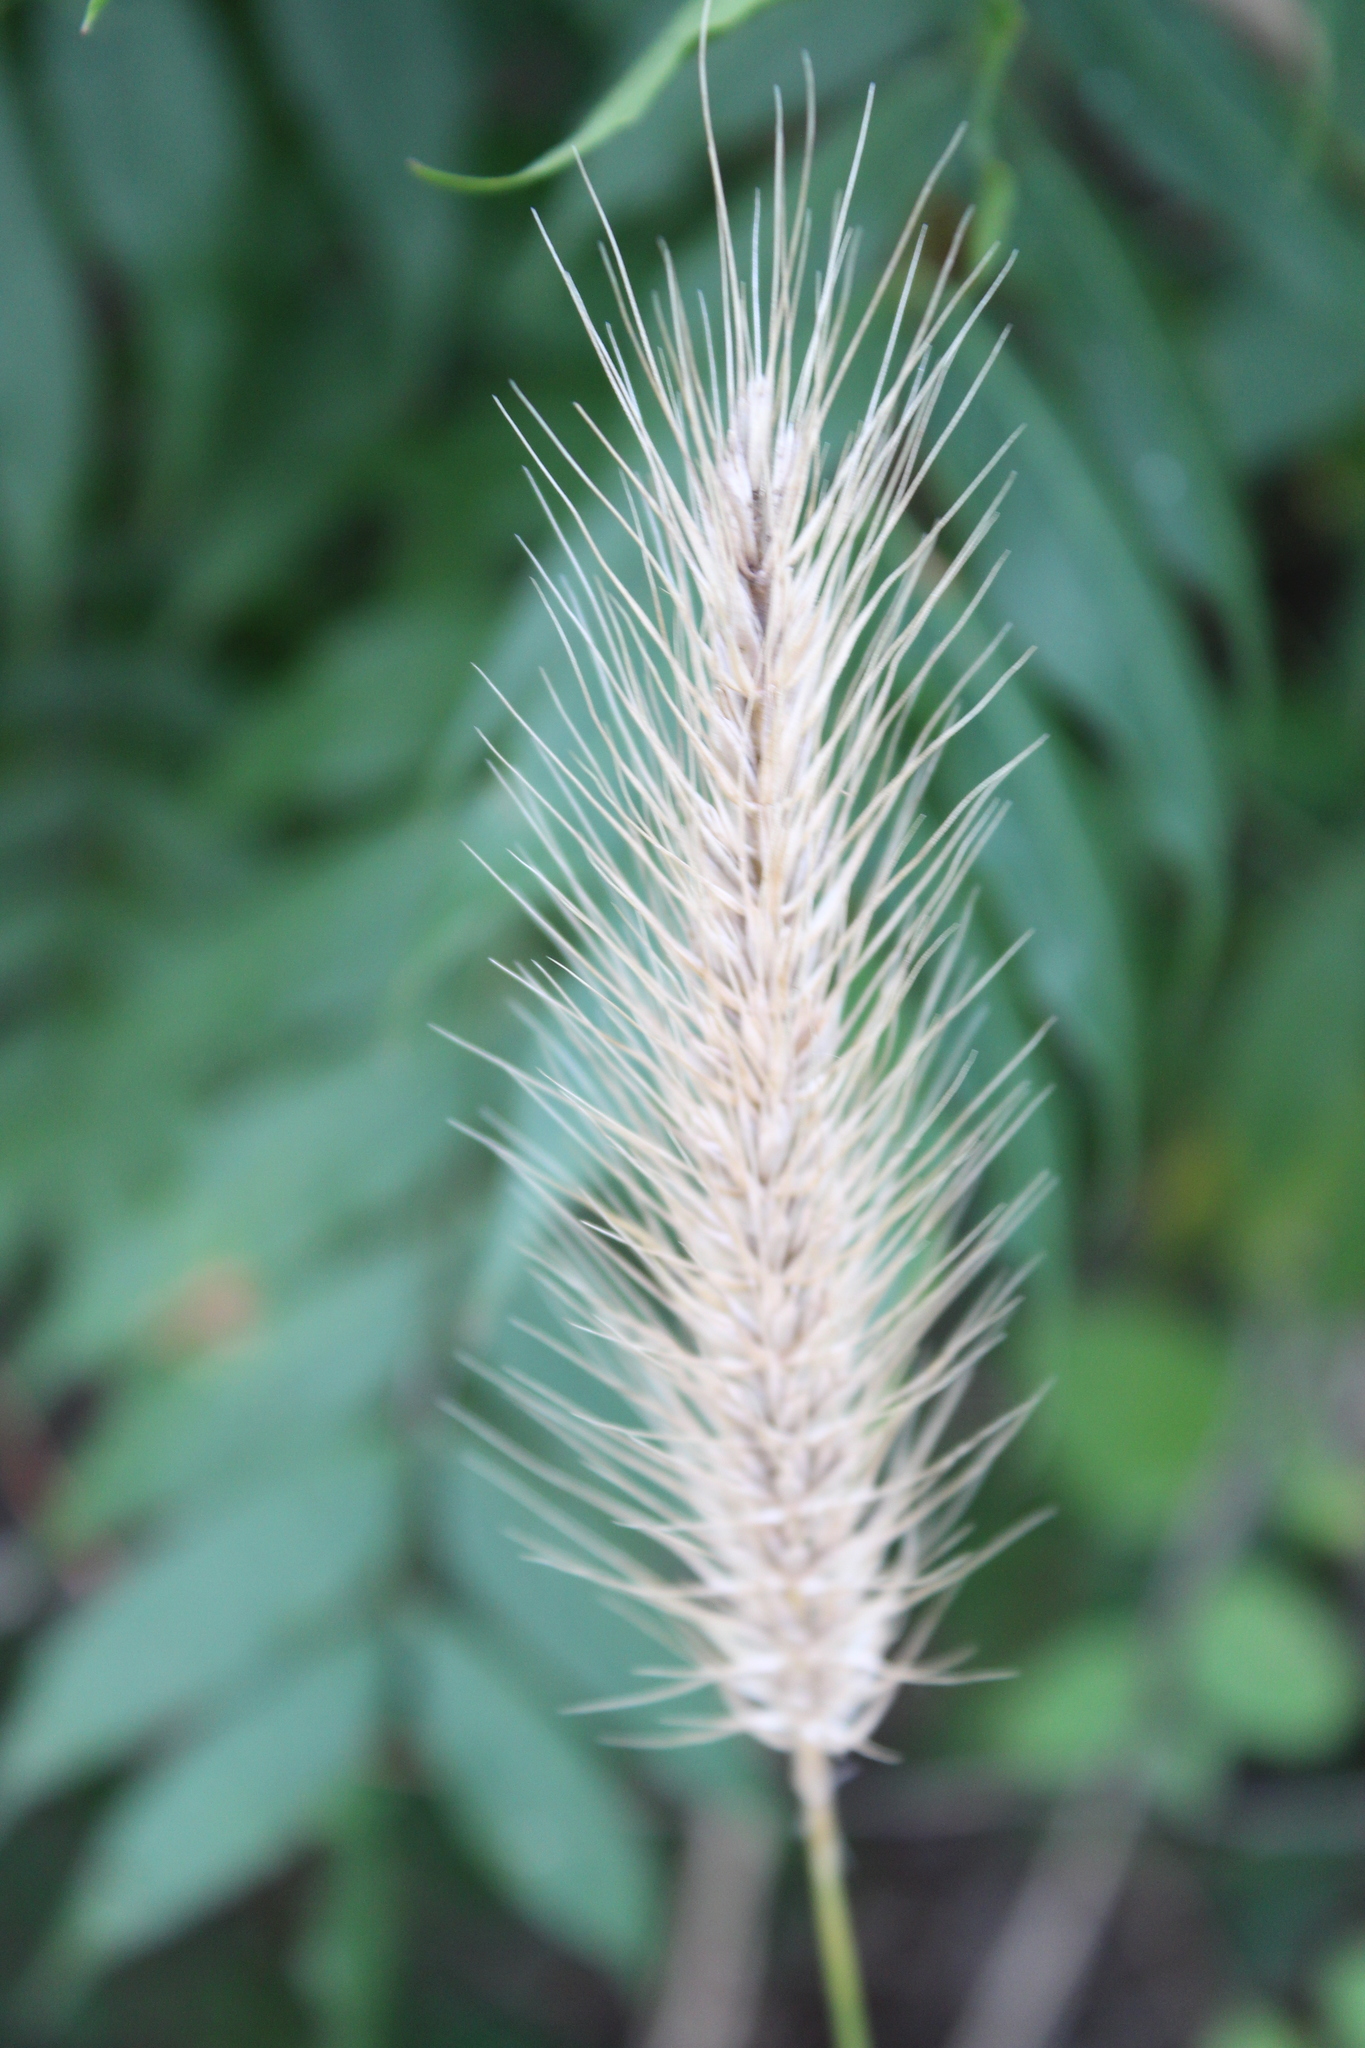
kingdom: Plantae
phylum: Tracheophyta
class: Liliopsida
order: Poales
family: Poaceae
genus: Elymus
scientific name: Elymus virginicus
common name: Common eastern wildrye
